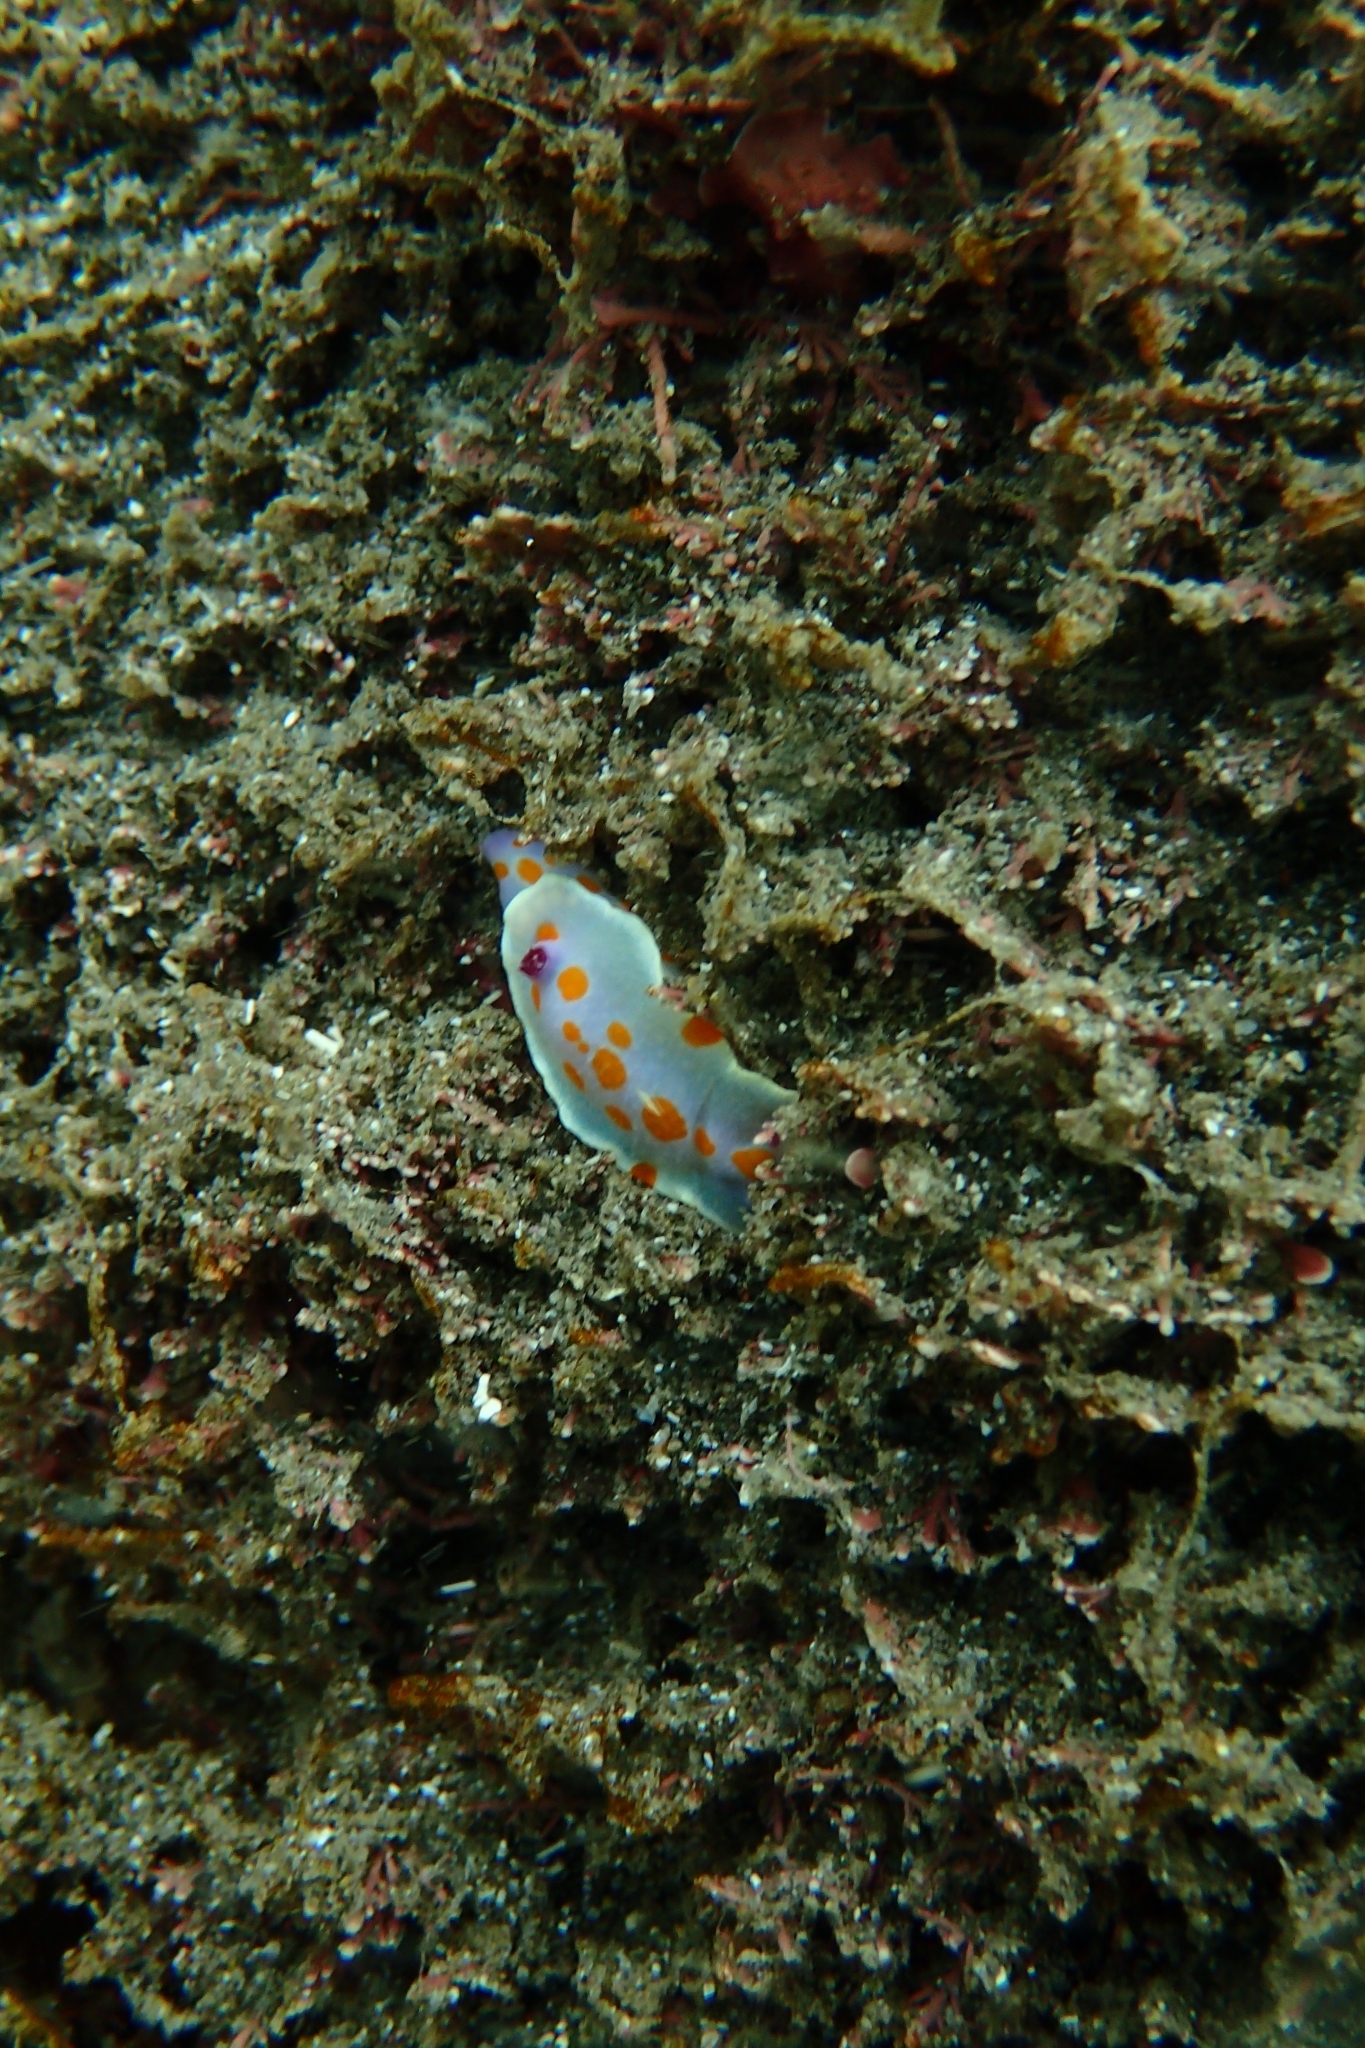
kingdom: Animalia
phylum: Mollusca
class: Gastropoda
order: Nudibranchia
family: Chromodorididae
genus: Ceratosoma
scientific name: Ceratosoma amoenum
